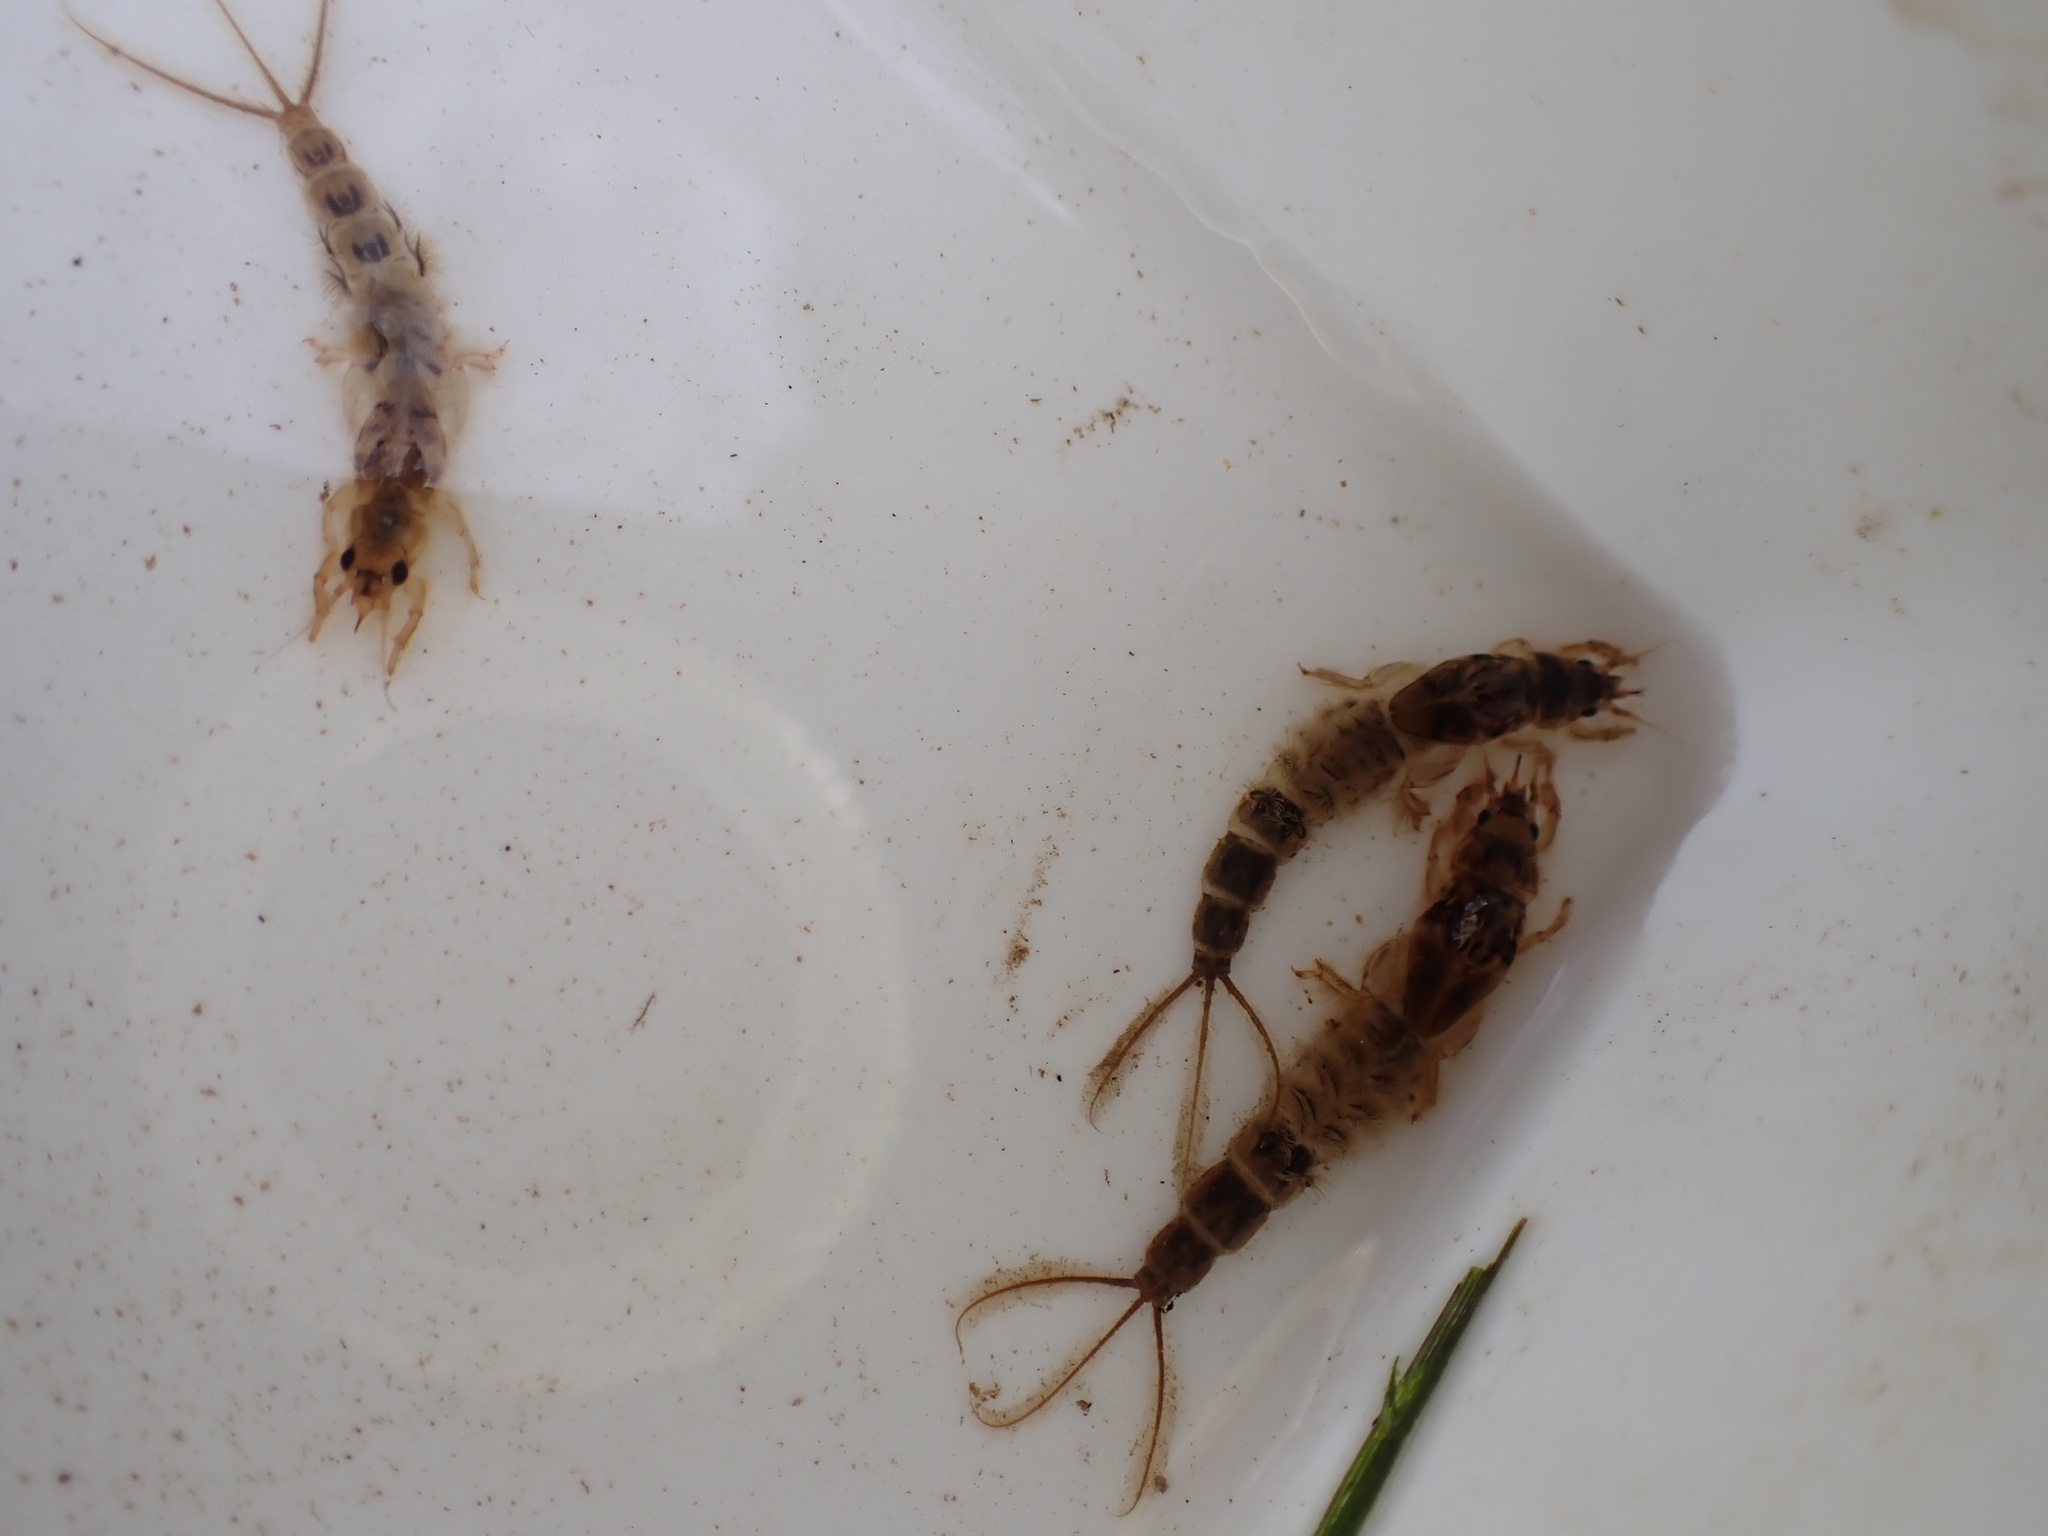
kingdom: Animalia
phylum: Arthropoda
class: Insecta
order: Ephemeroptera
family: Ephemeridae
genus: Ephemera
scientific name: Ephemera danica
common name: Green dun
